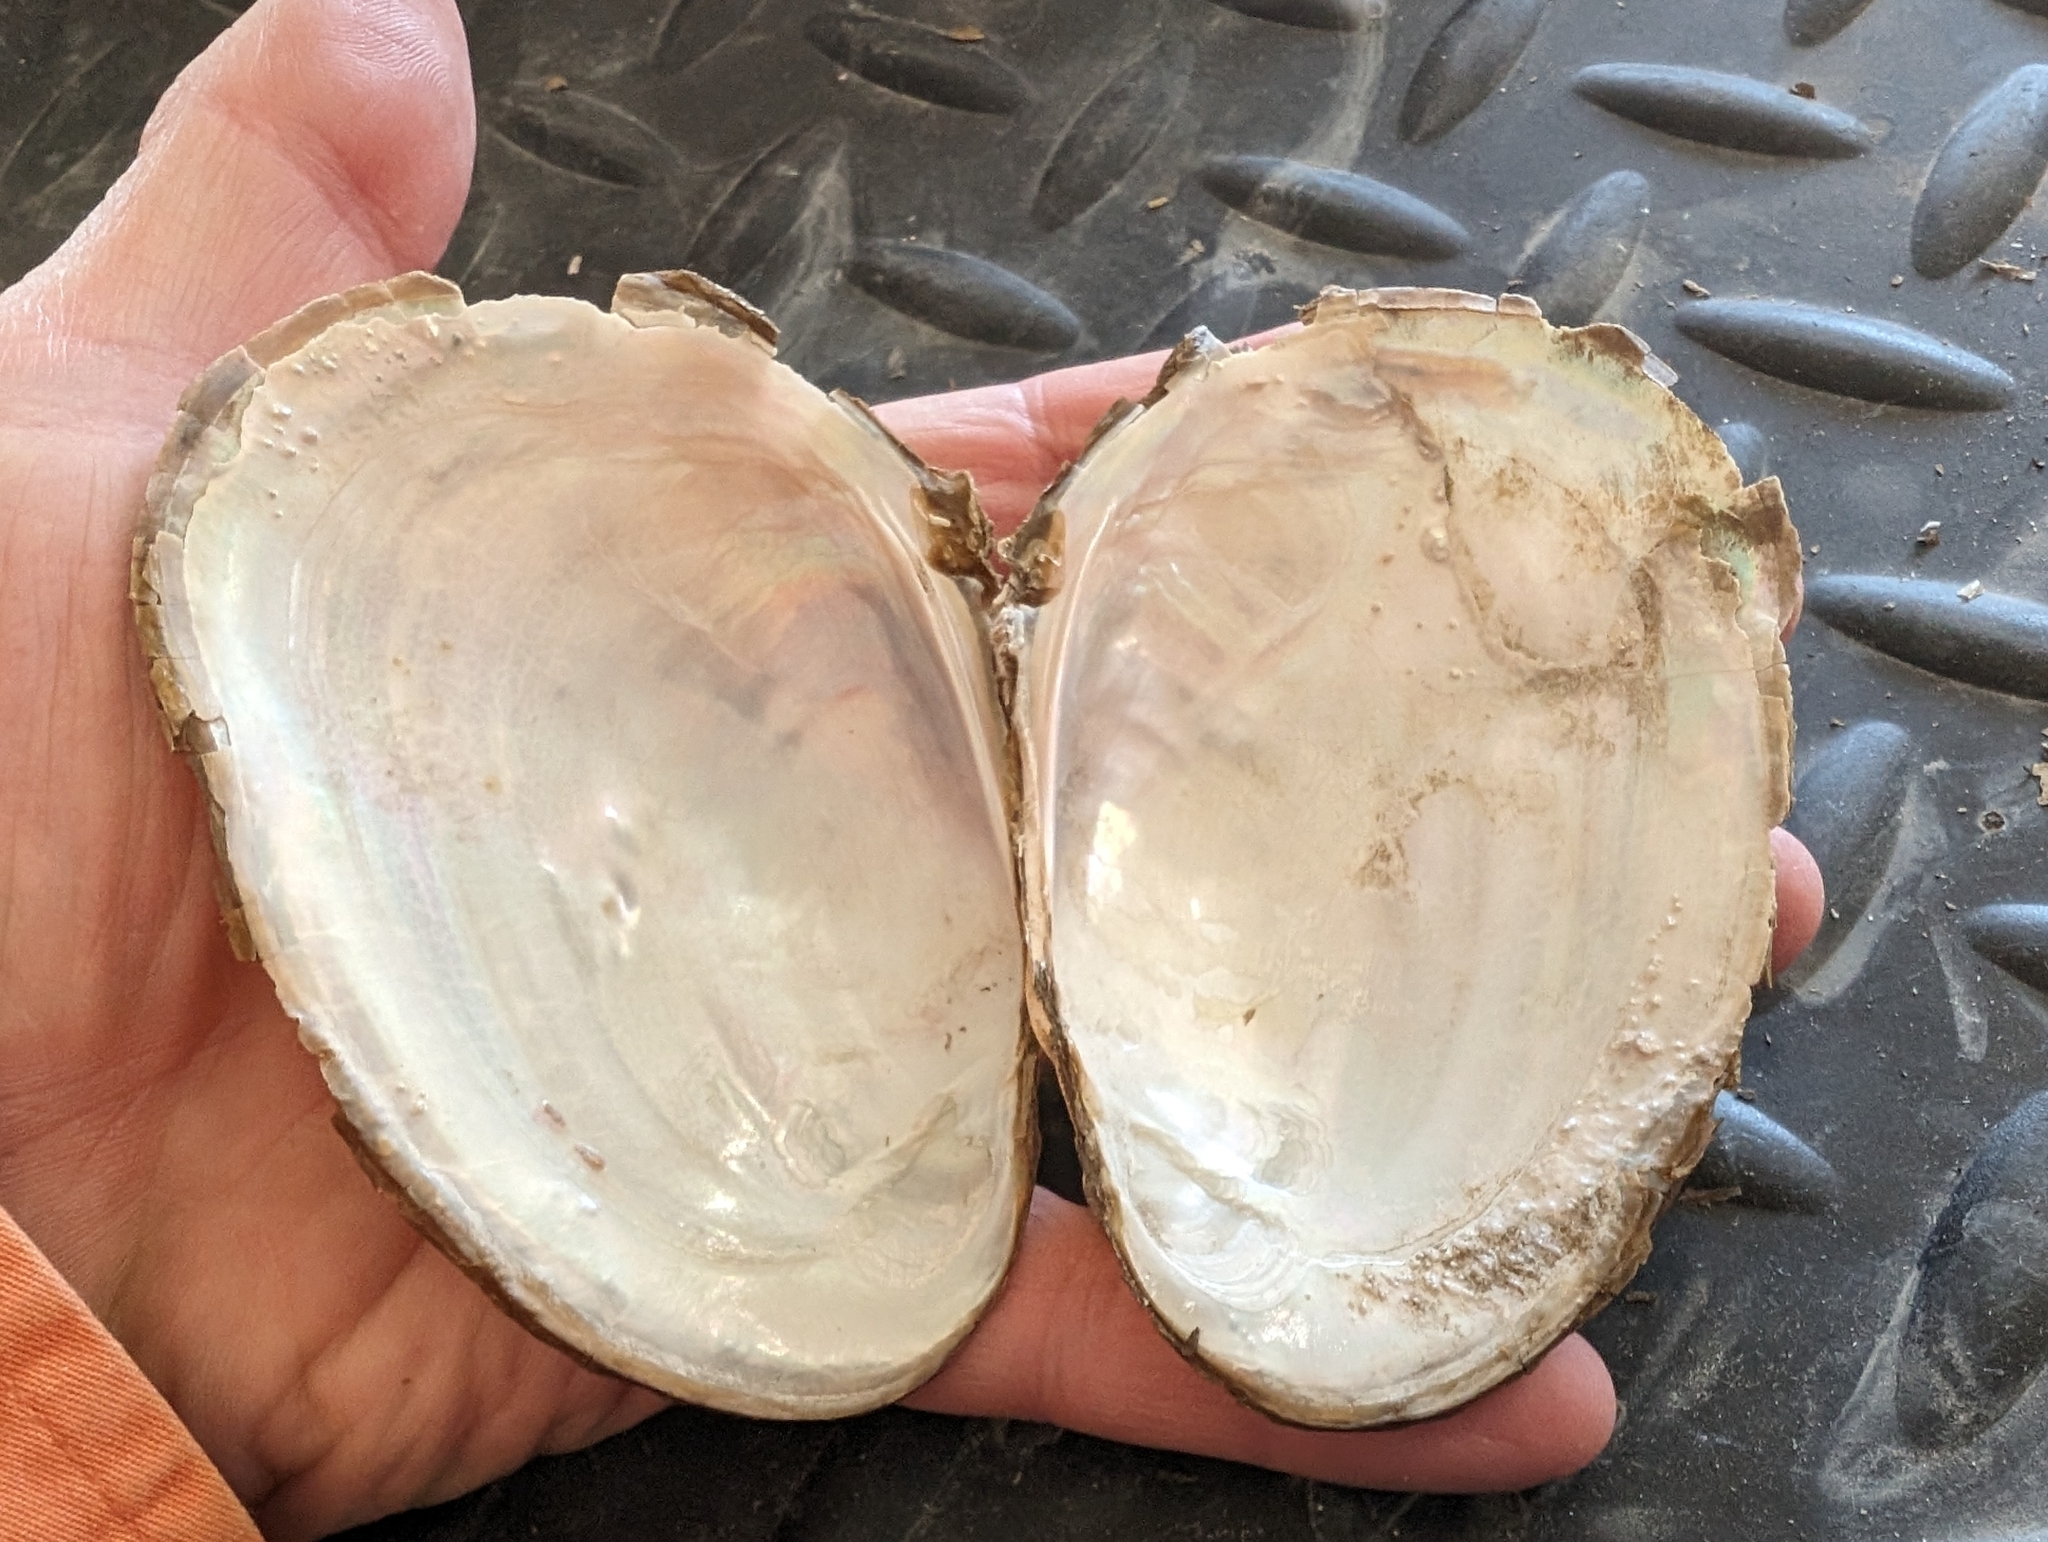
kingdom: Animalia
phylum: Mollusca
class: Bivalvia
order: Unionida
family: Unionidae
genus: Potamilus
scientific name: Potamilus fragilis
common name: Fragile papershell
